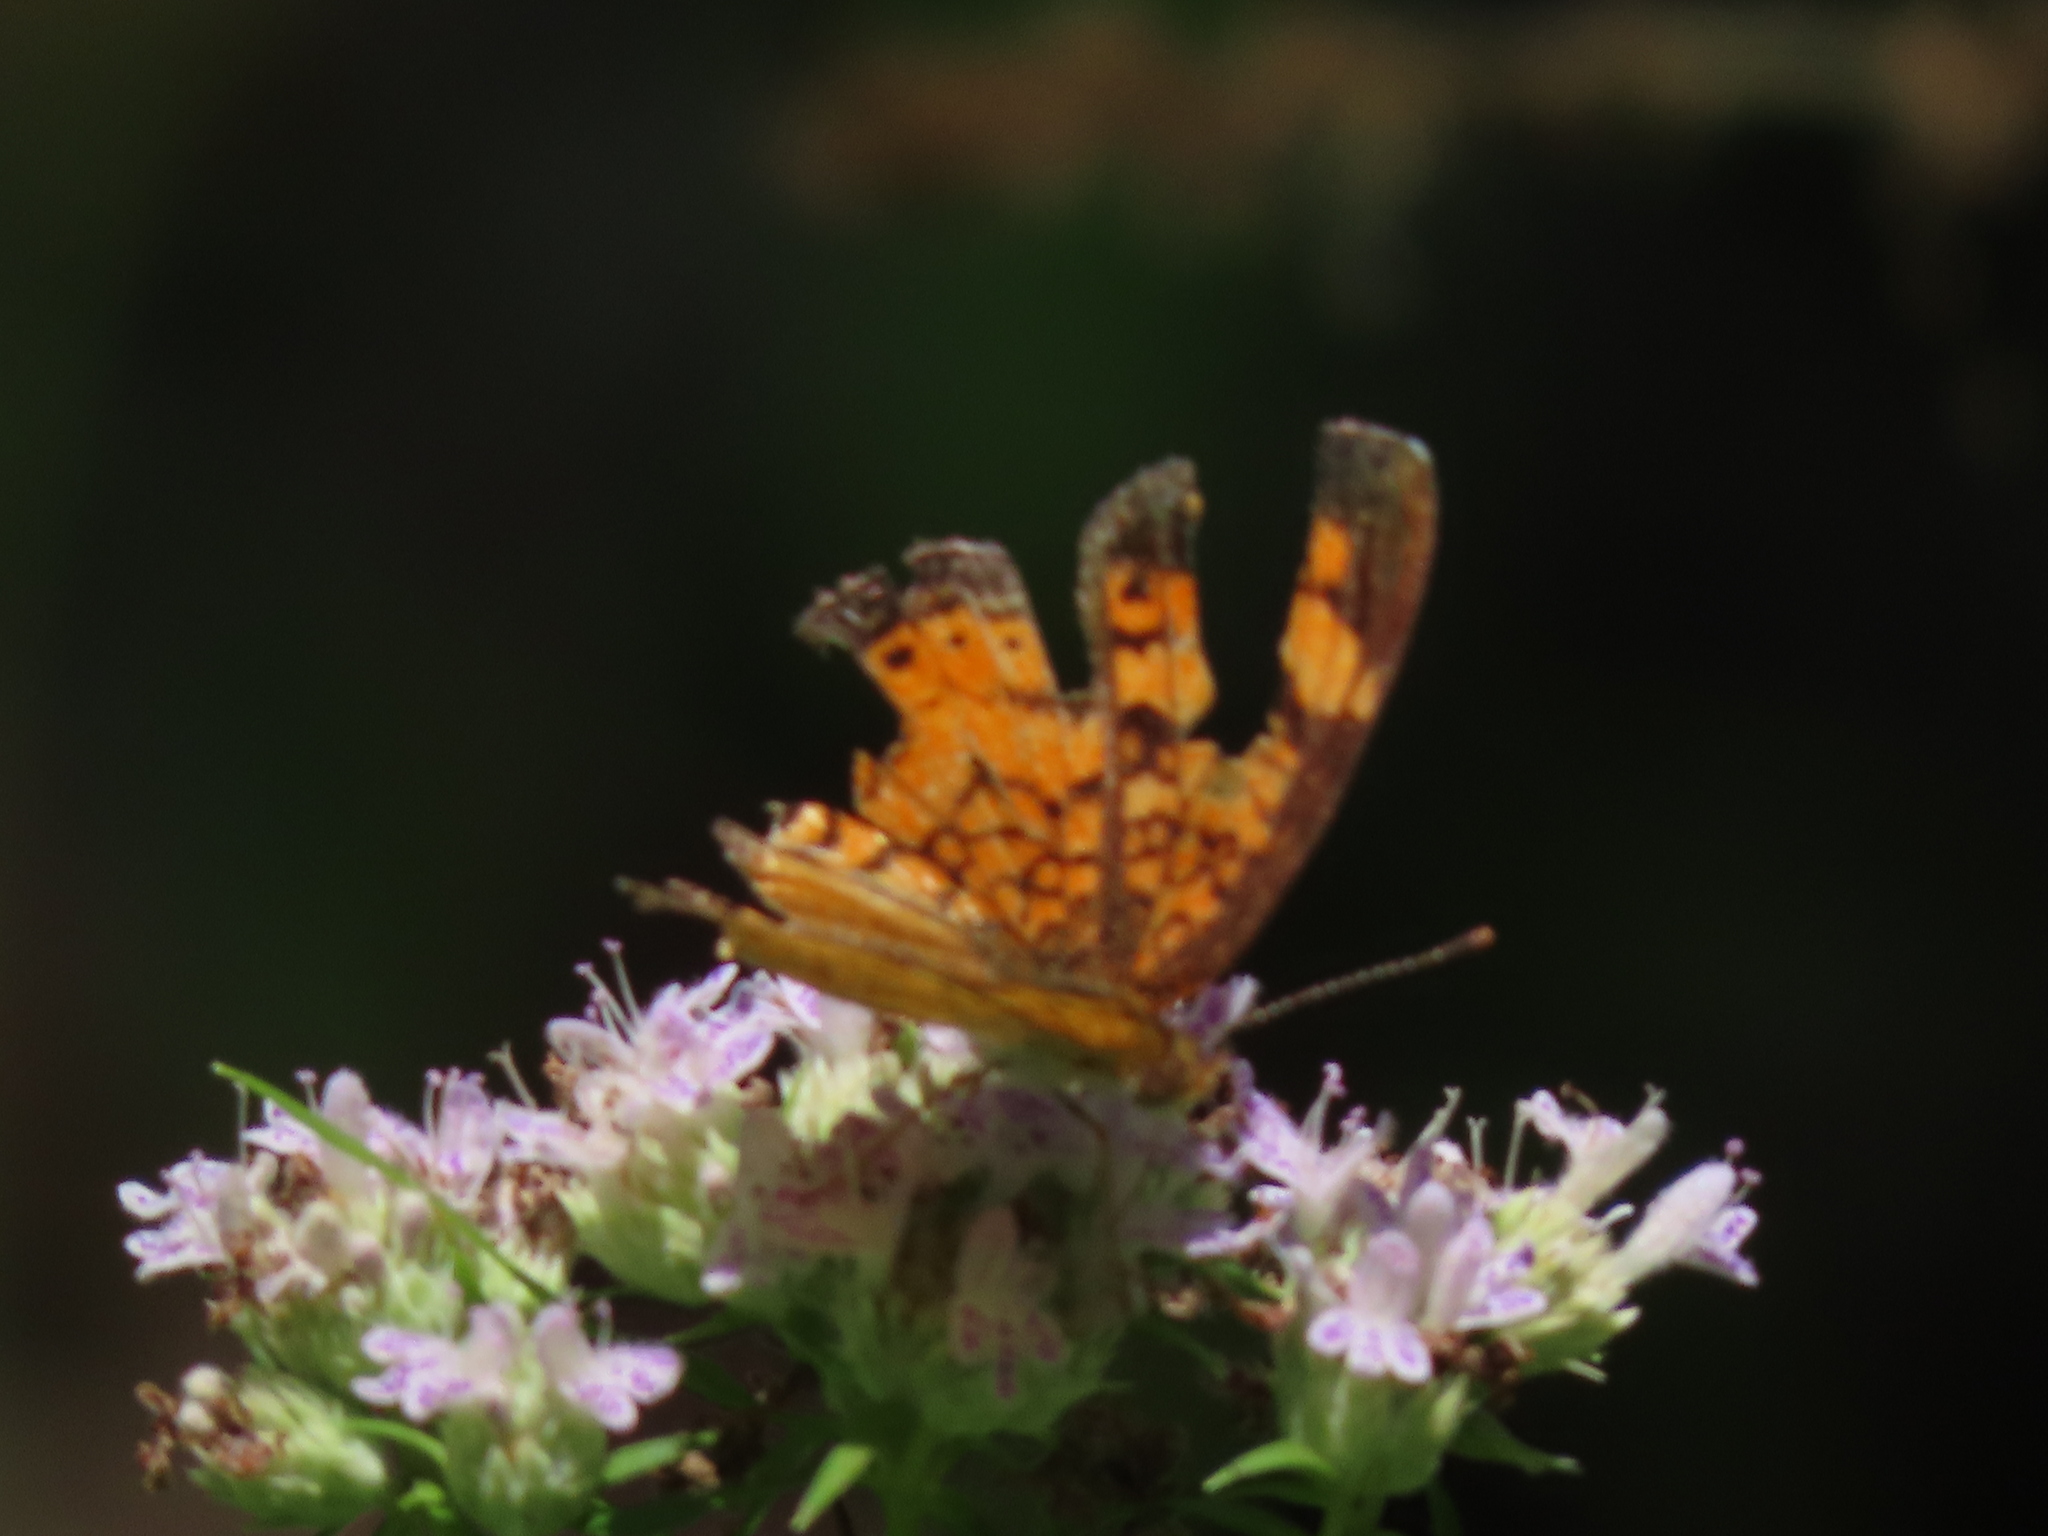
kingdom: Animalia
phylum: Arthropoda
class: Insecta
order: Lepidoptera
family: Nymphalidae
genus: Phyciodes
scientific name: Phyciodes tharos
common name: Pearl crescent
